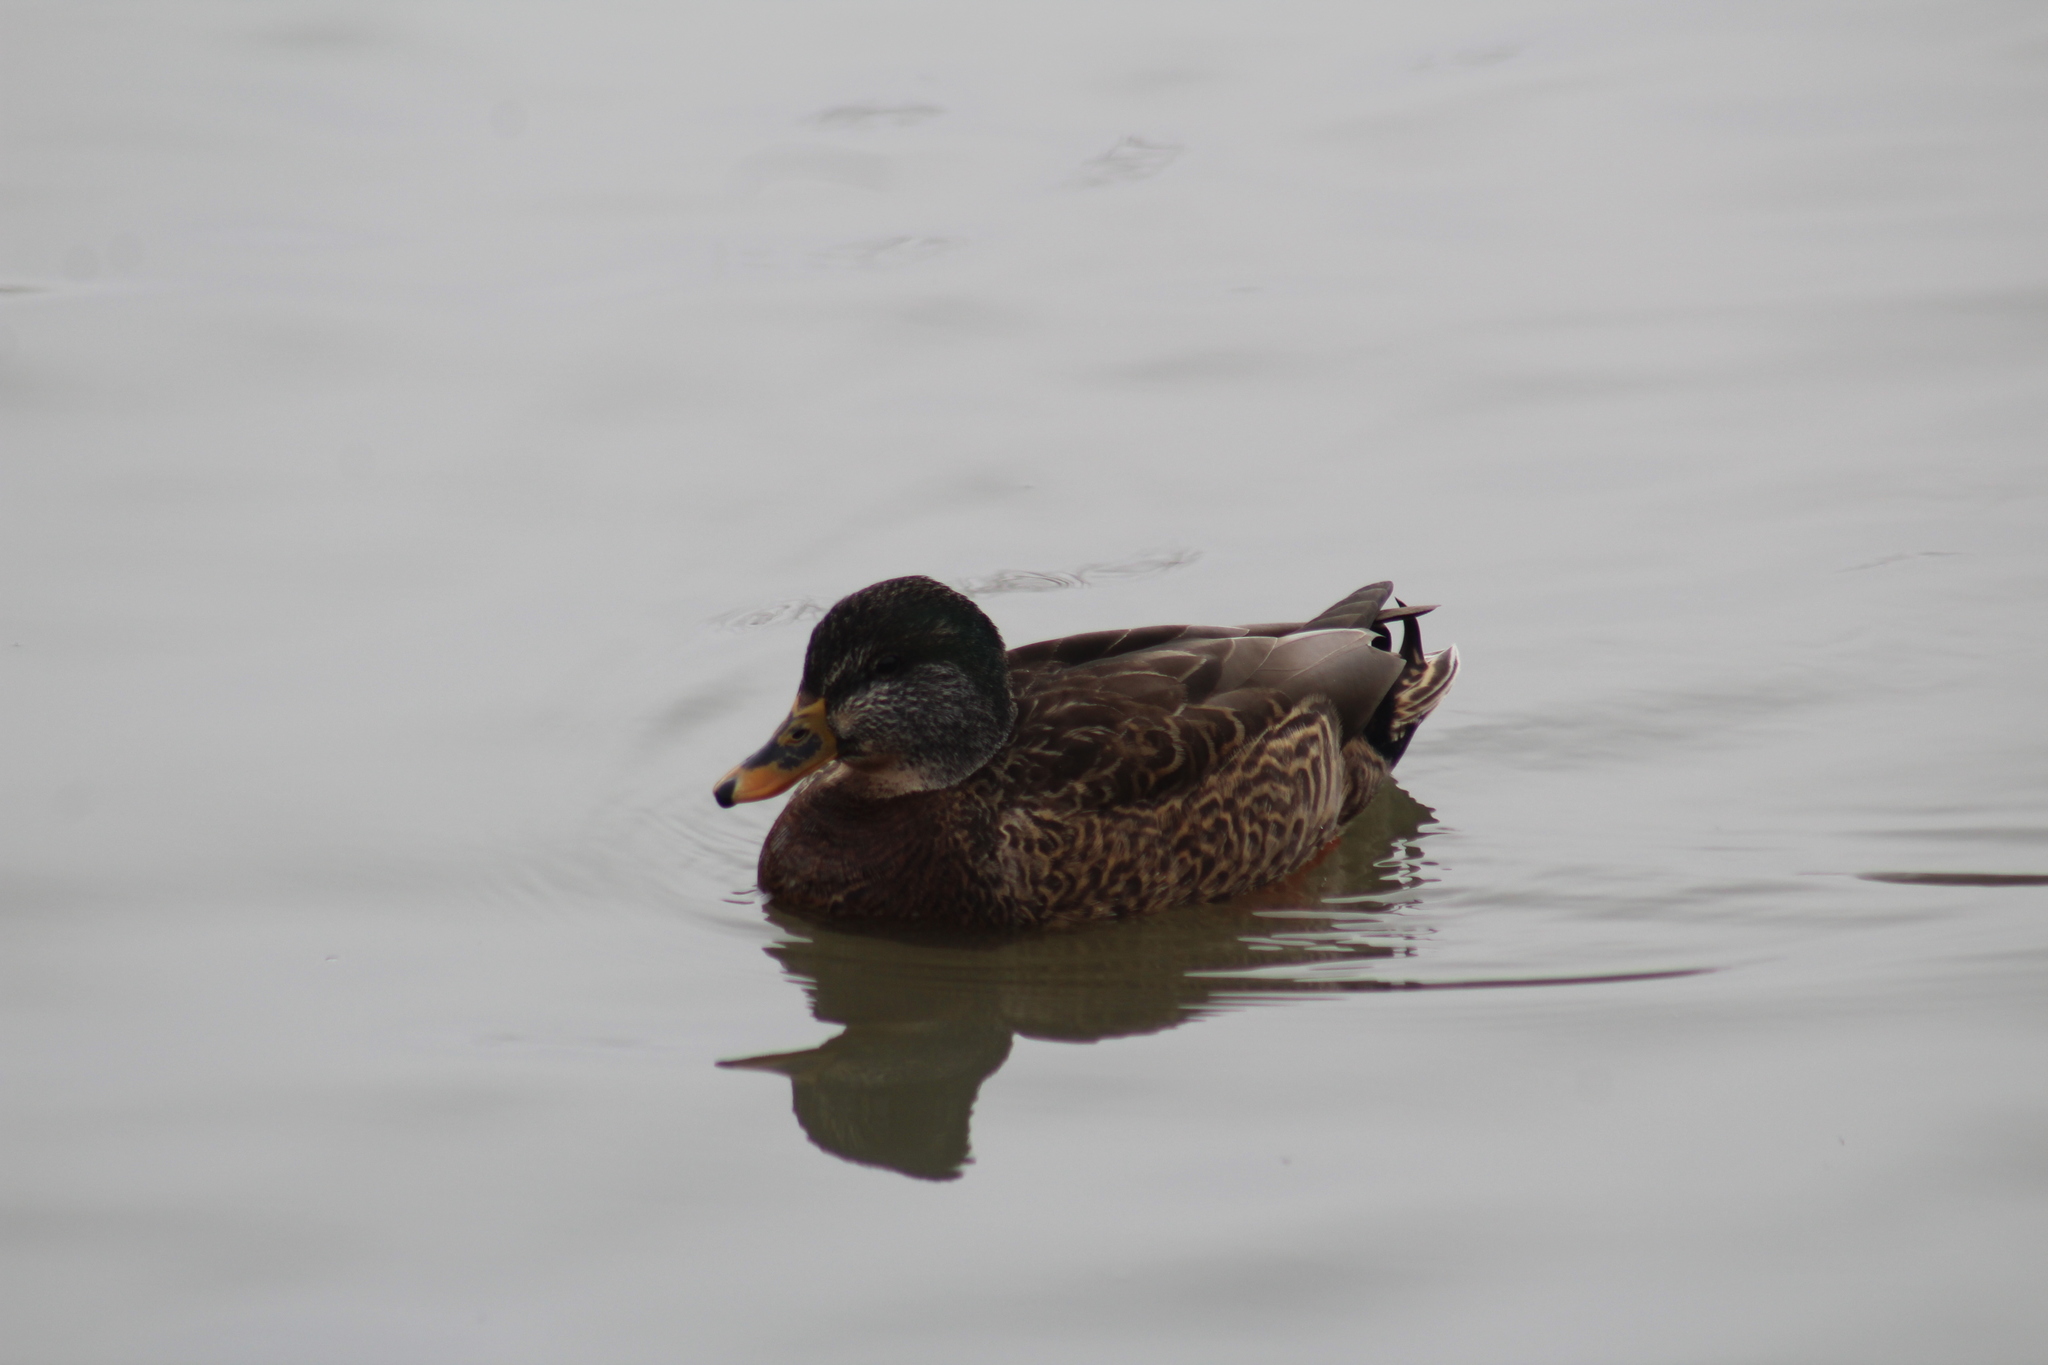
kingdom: Animalia
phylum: Chordata
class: Aves
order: Anseriformes
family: Anatidae
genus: Anas
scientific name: Anas platyrhynchos
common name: Mallard
